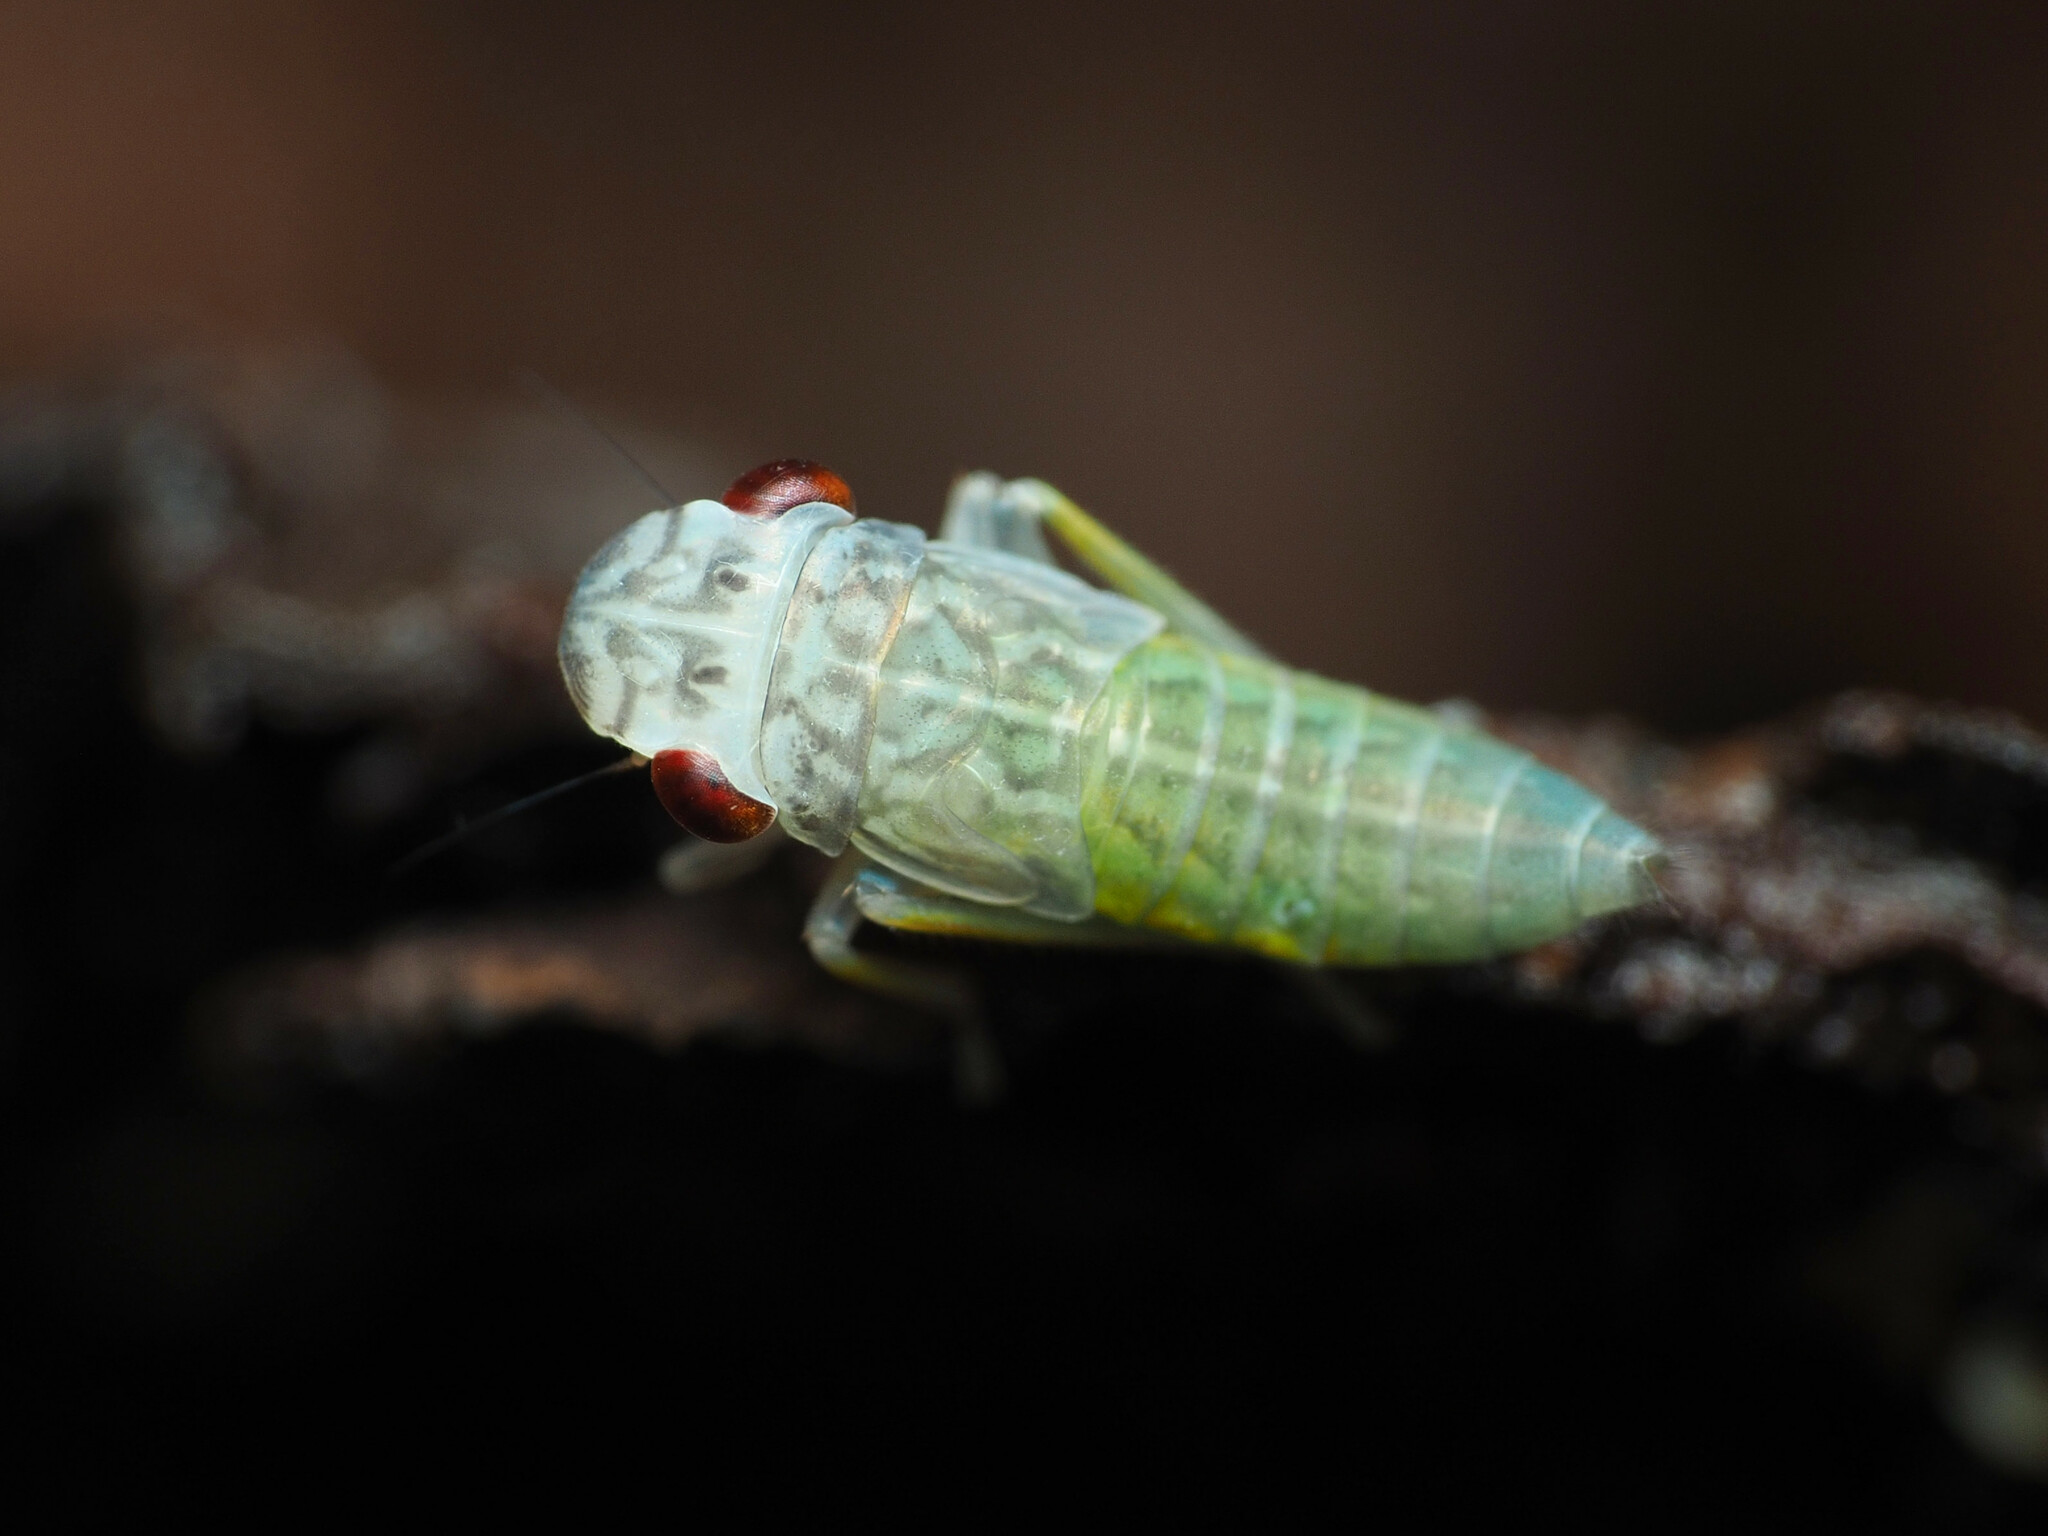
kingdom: Animalia
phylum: Arthropoda
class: Insecta
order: Hemiptera
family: Cicadellidae
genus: Oncometopia
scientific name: Oncometopia orbona
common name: Broad-headed sharpshooter
